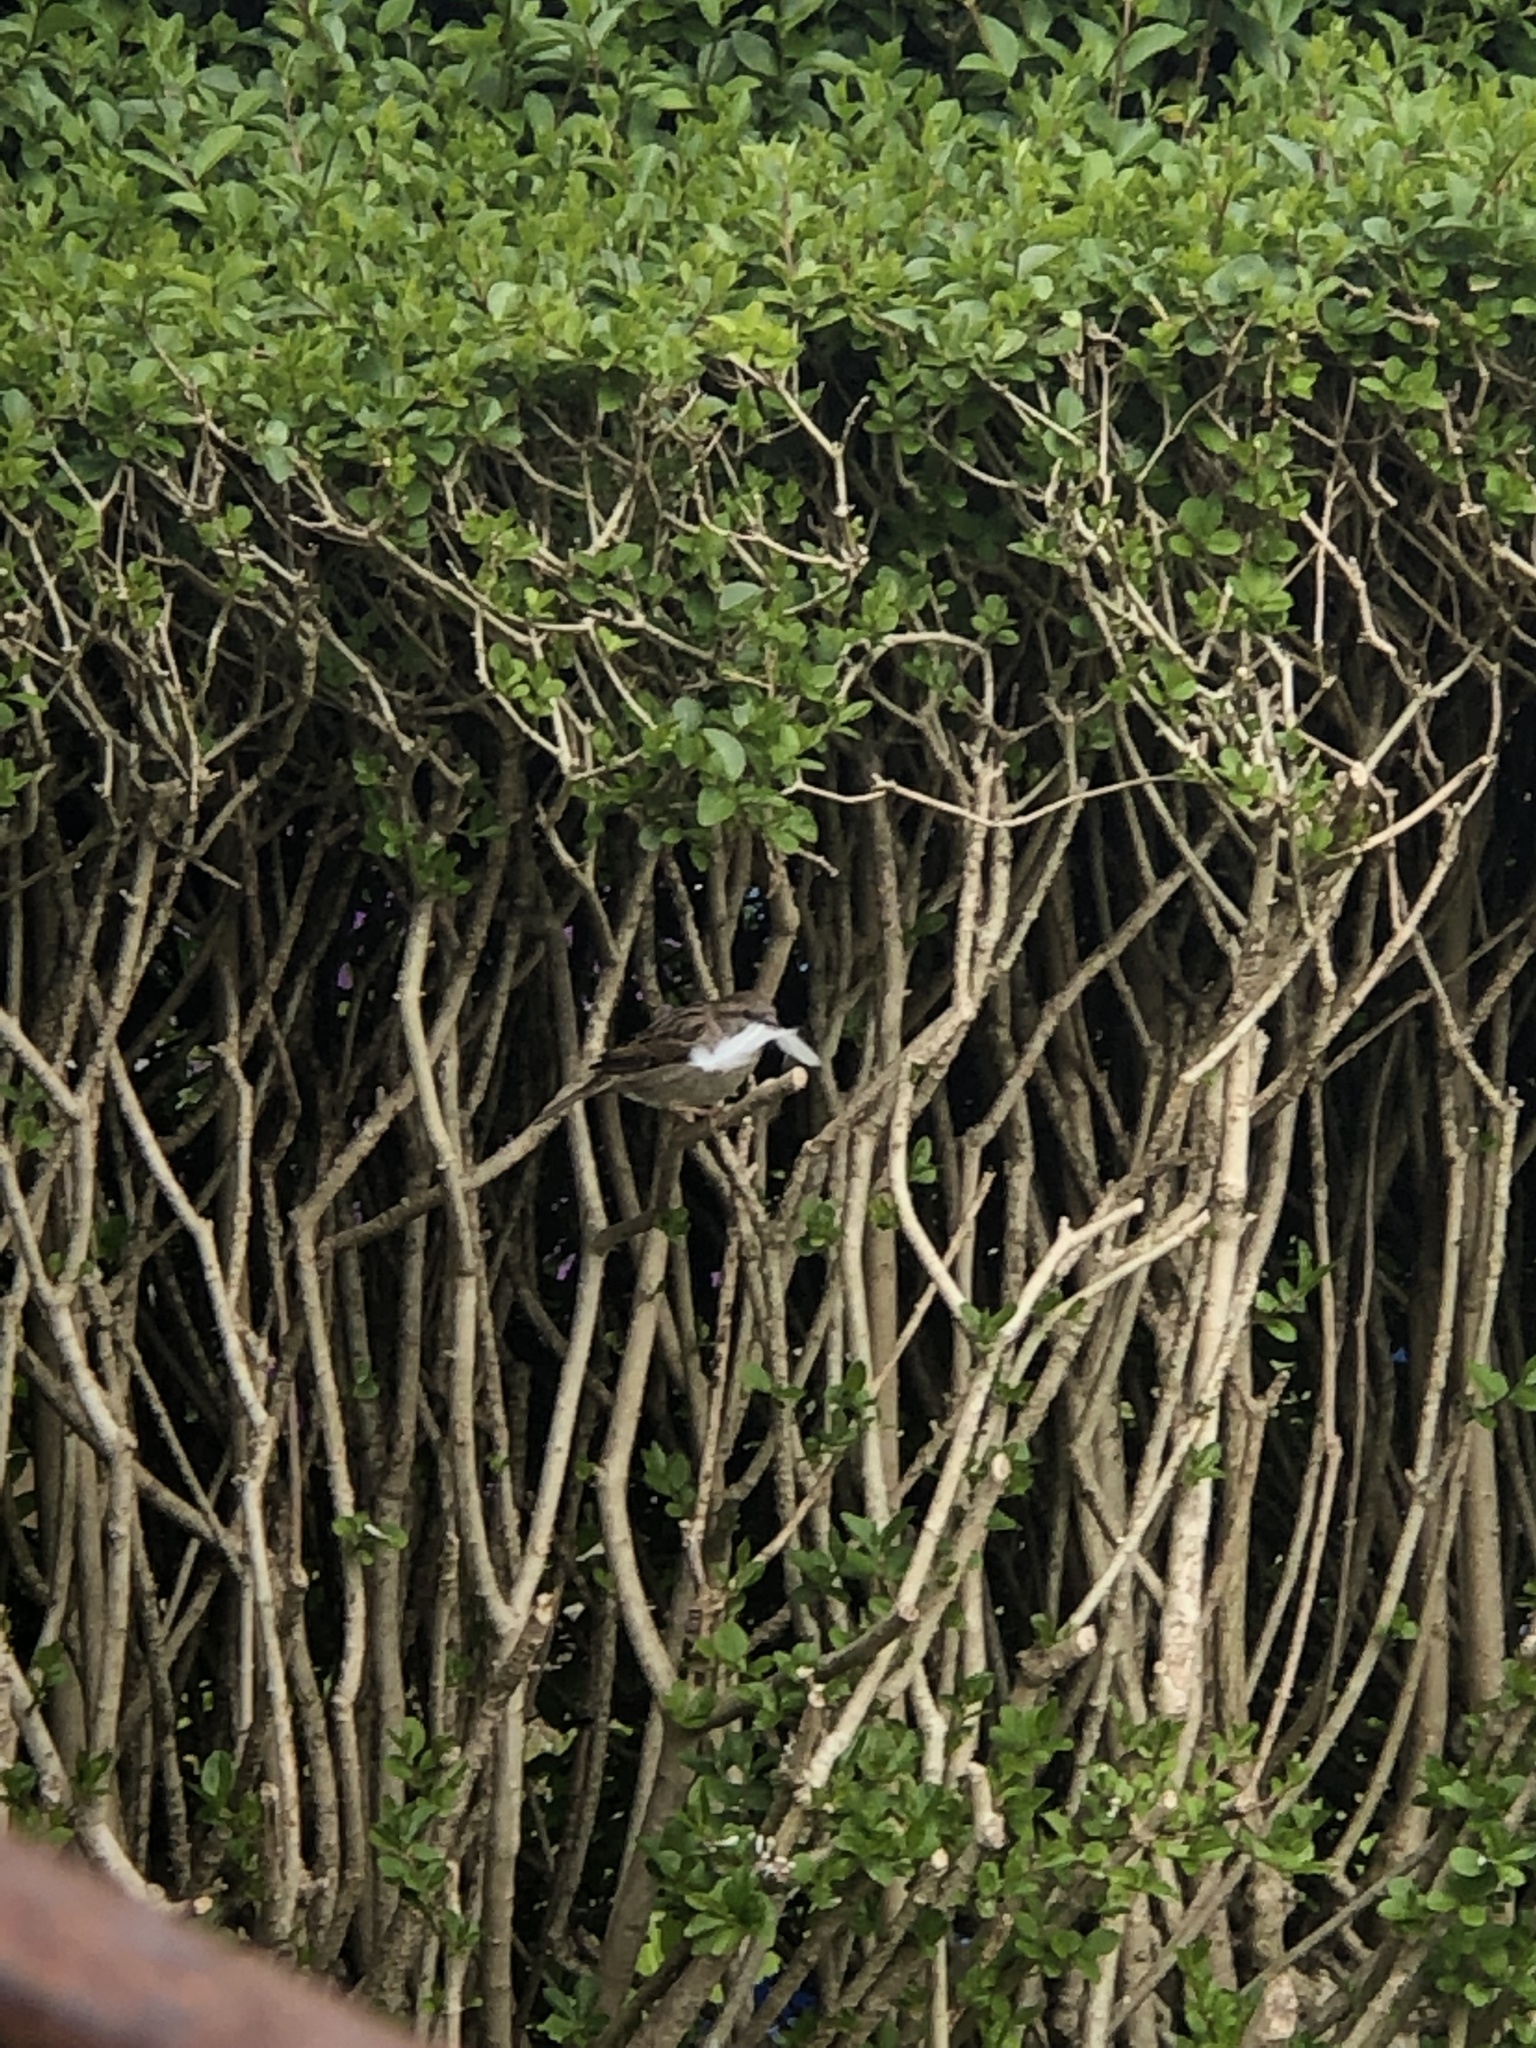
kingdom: Animalia
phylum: Chordata
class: Aves
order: Passeriformes
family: Passeridae
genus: Passer
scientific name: Passer domesticus
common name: House sparrow
